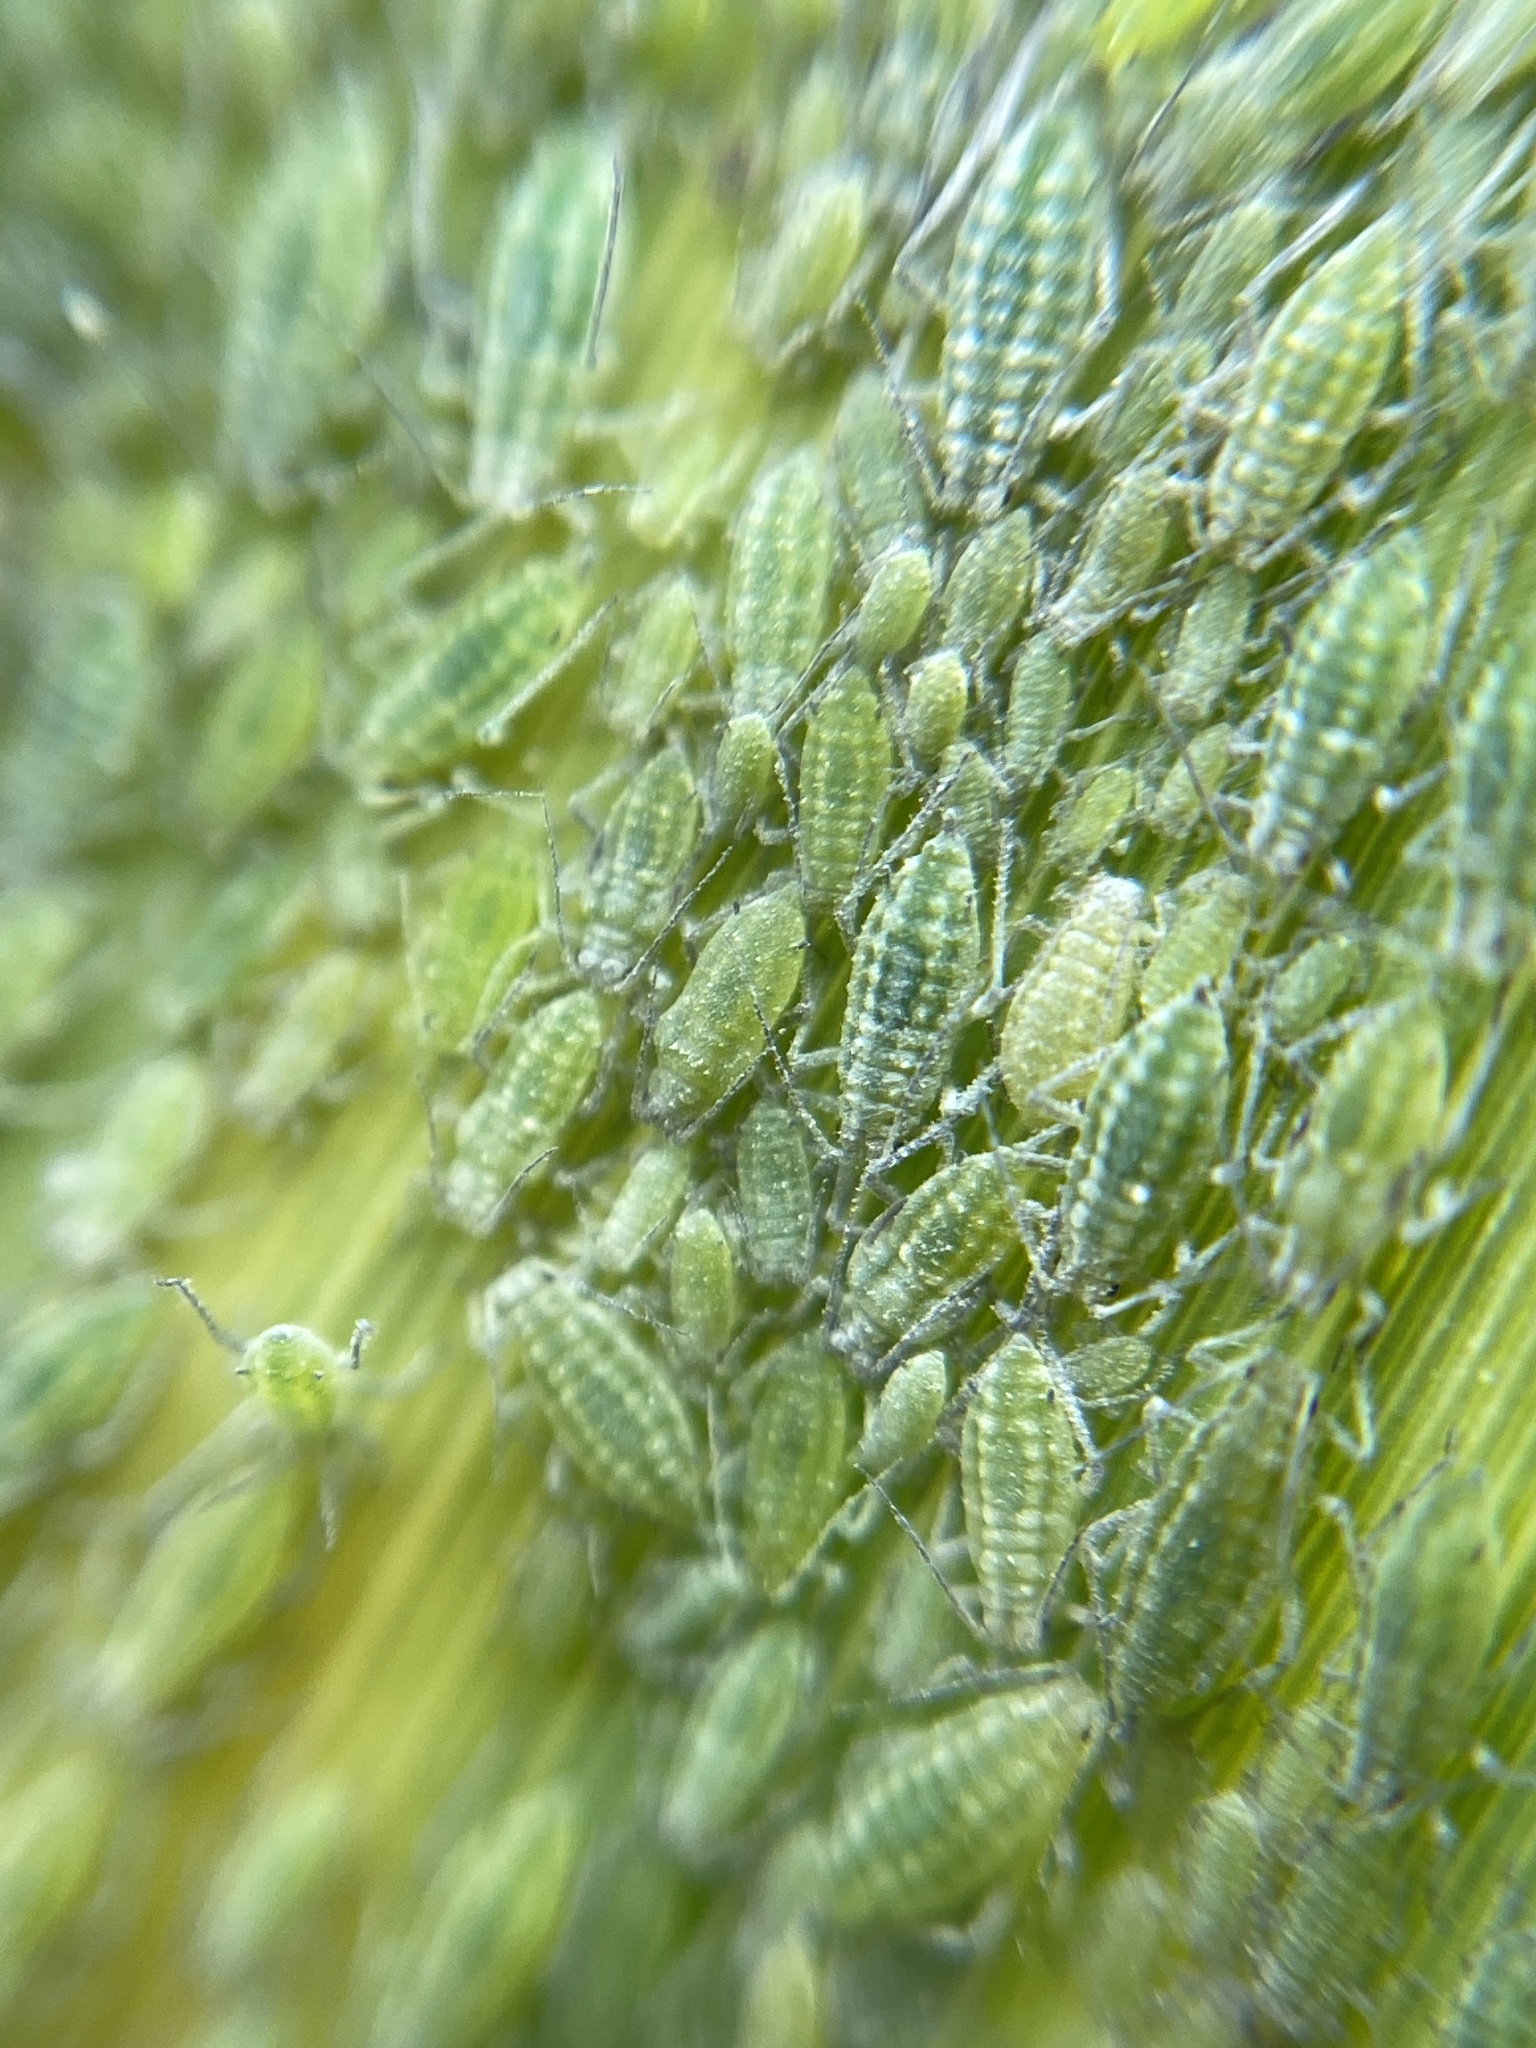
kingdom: Animalia
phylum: Arthropoda
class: Insecta
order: Hemiptera
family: Aphididae
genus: Hyalopterus
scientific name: Hyalopterus
